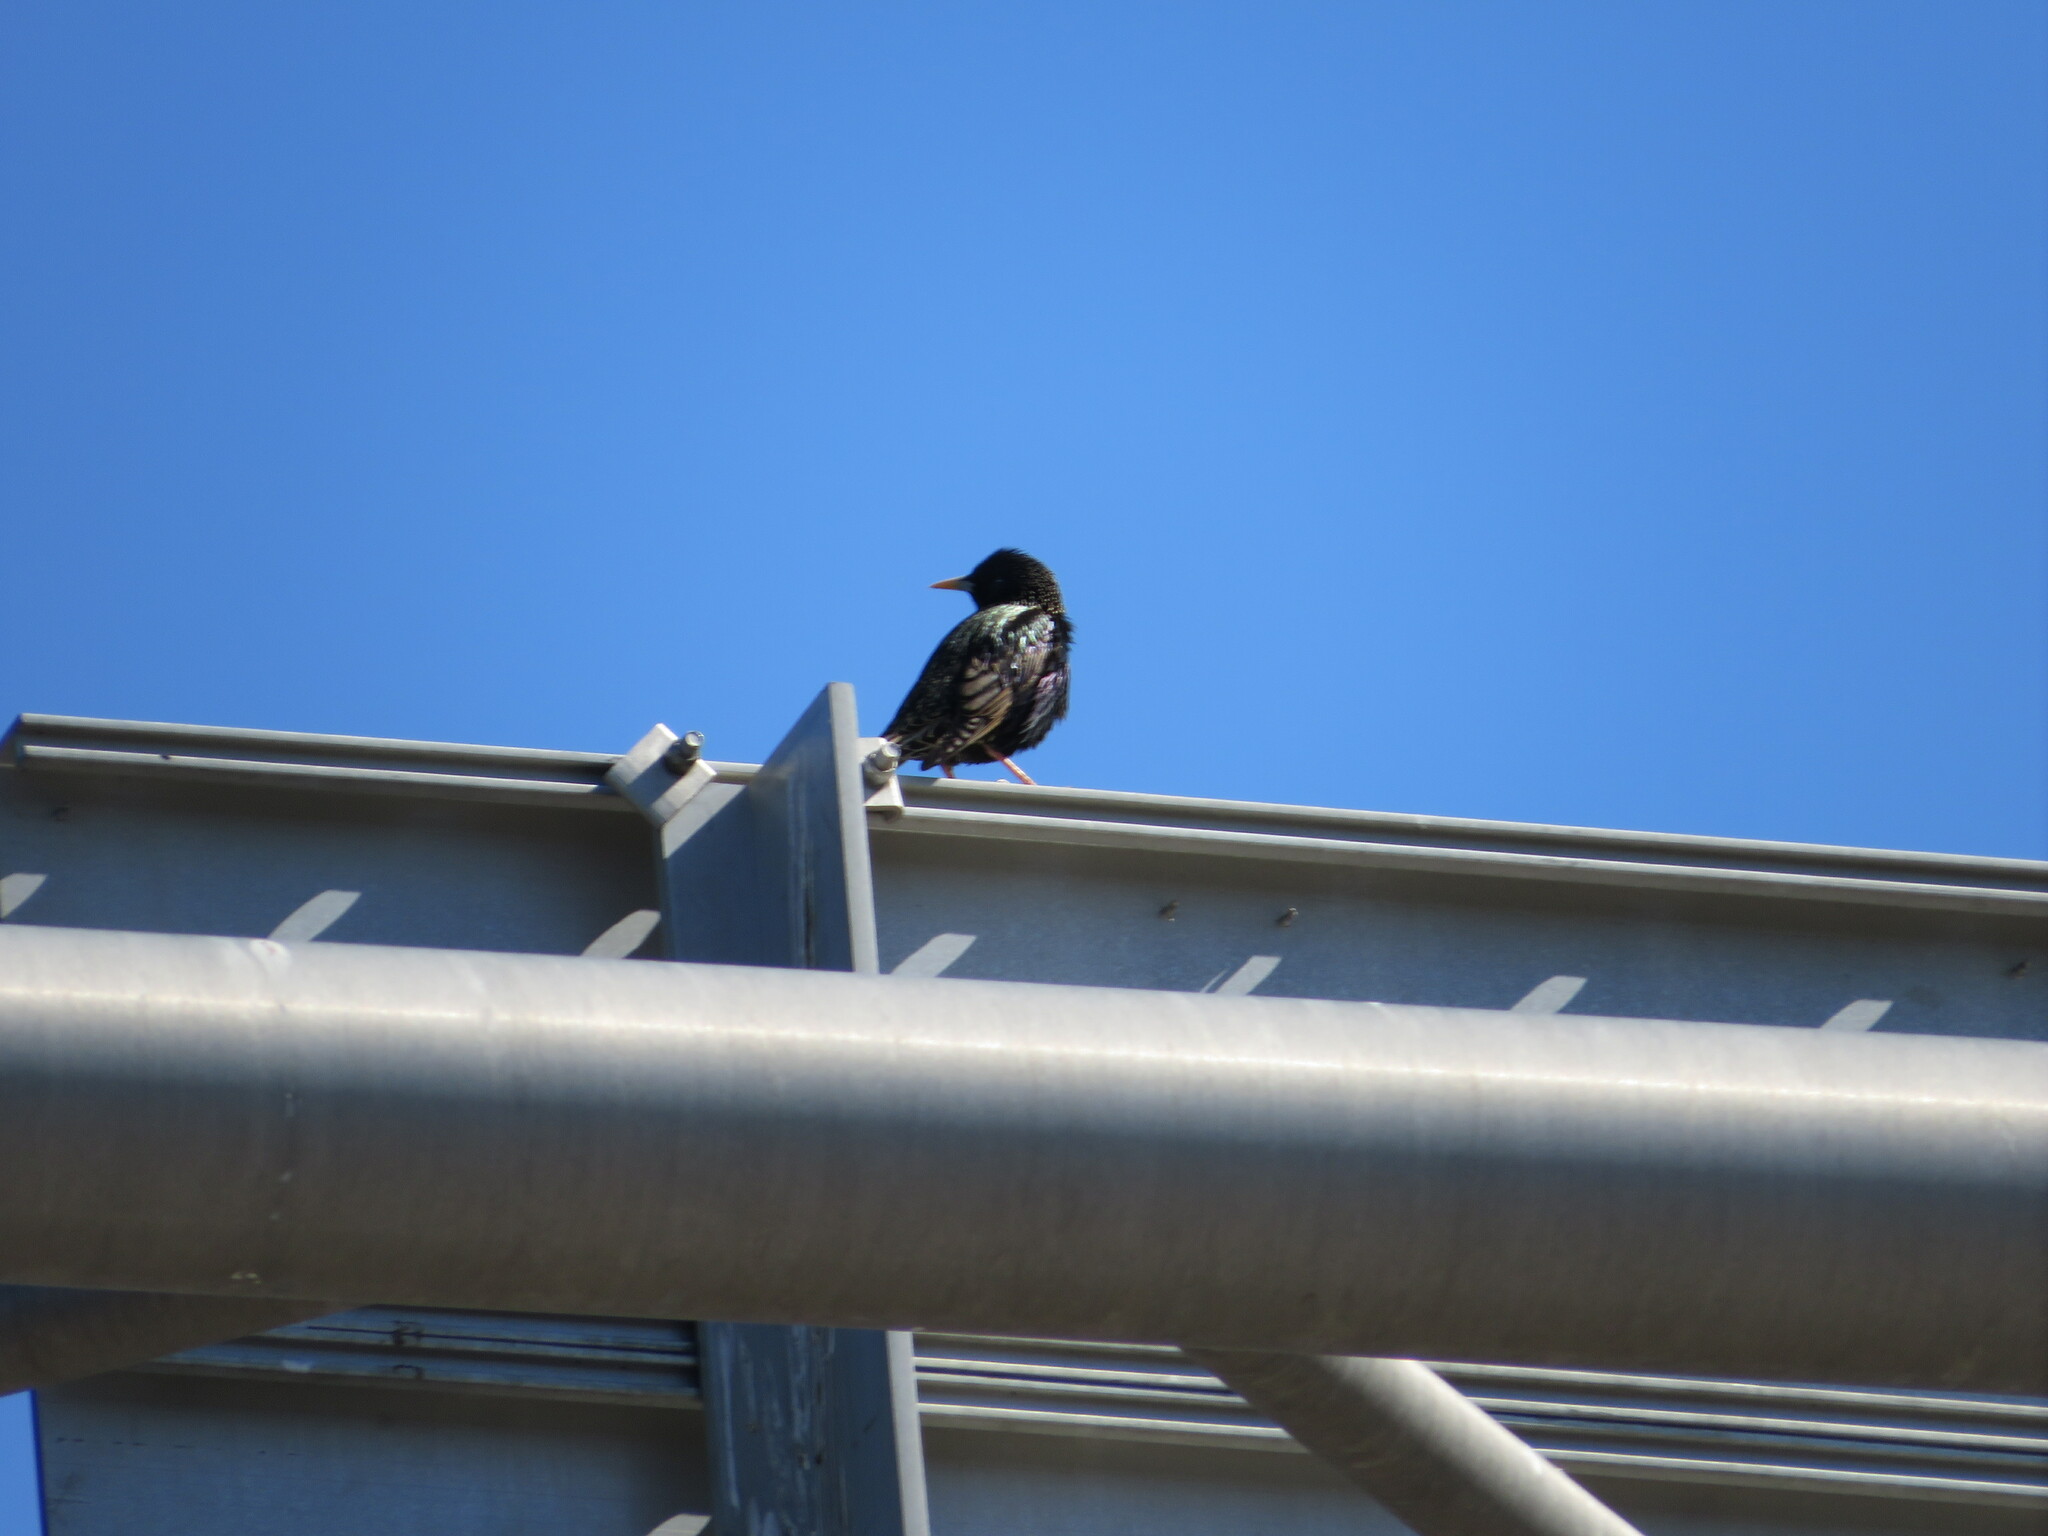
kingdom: Animalia
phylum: Chordata
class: Aves
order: Passeriformes
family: Sturnidae
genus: Sturnus
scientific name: Sturnus vulgaris
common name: Common starling
